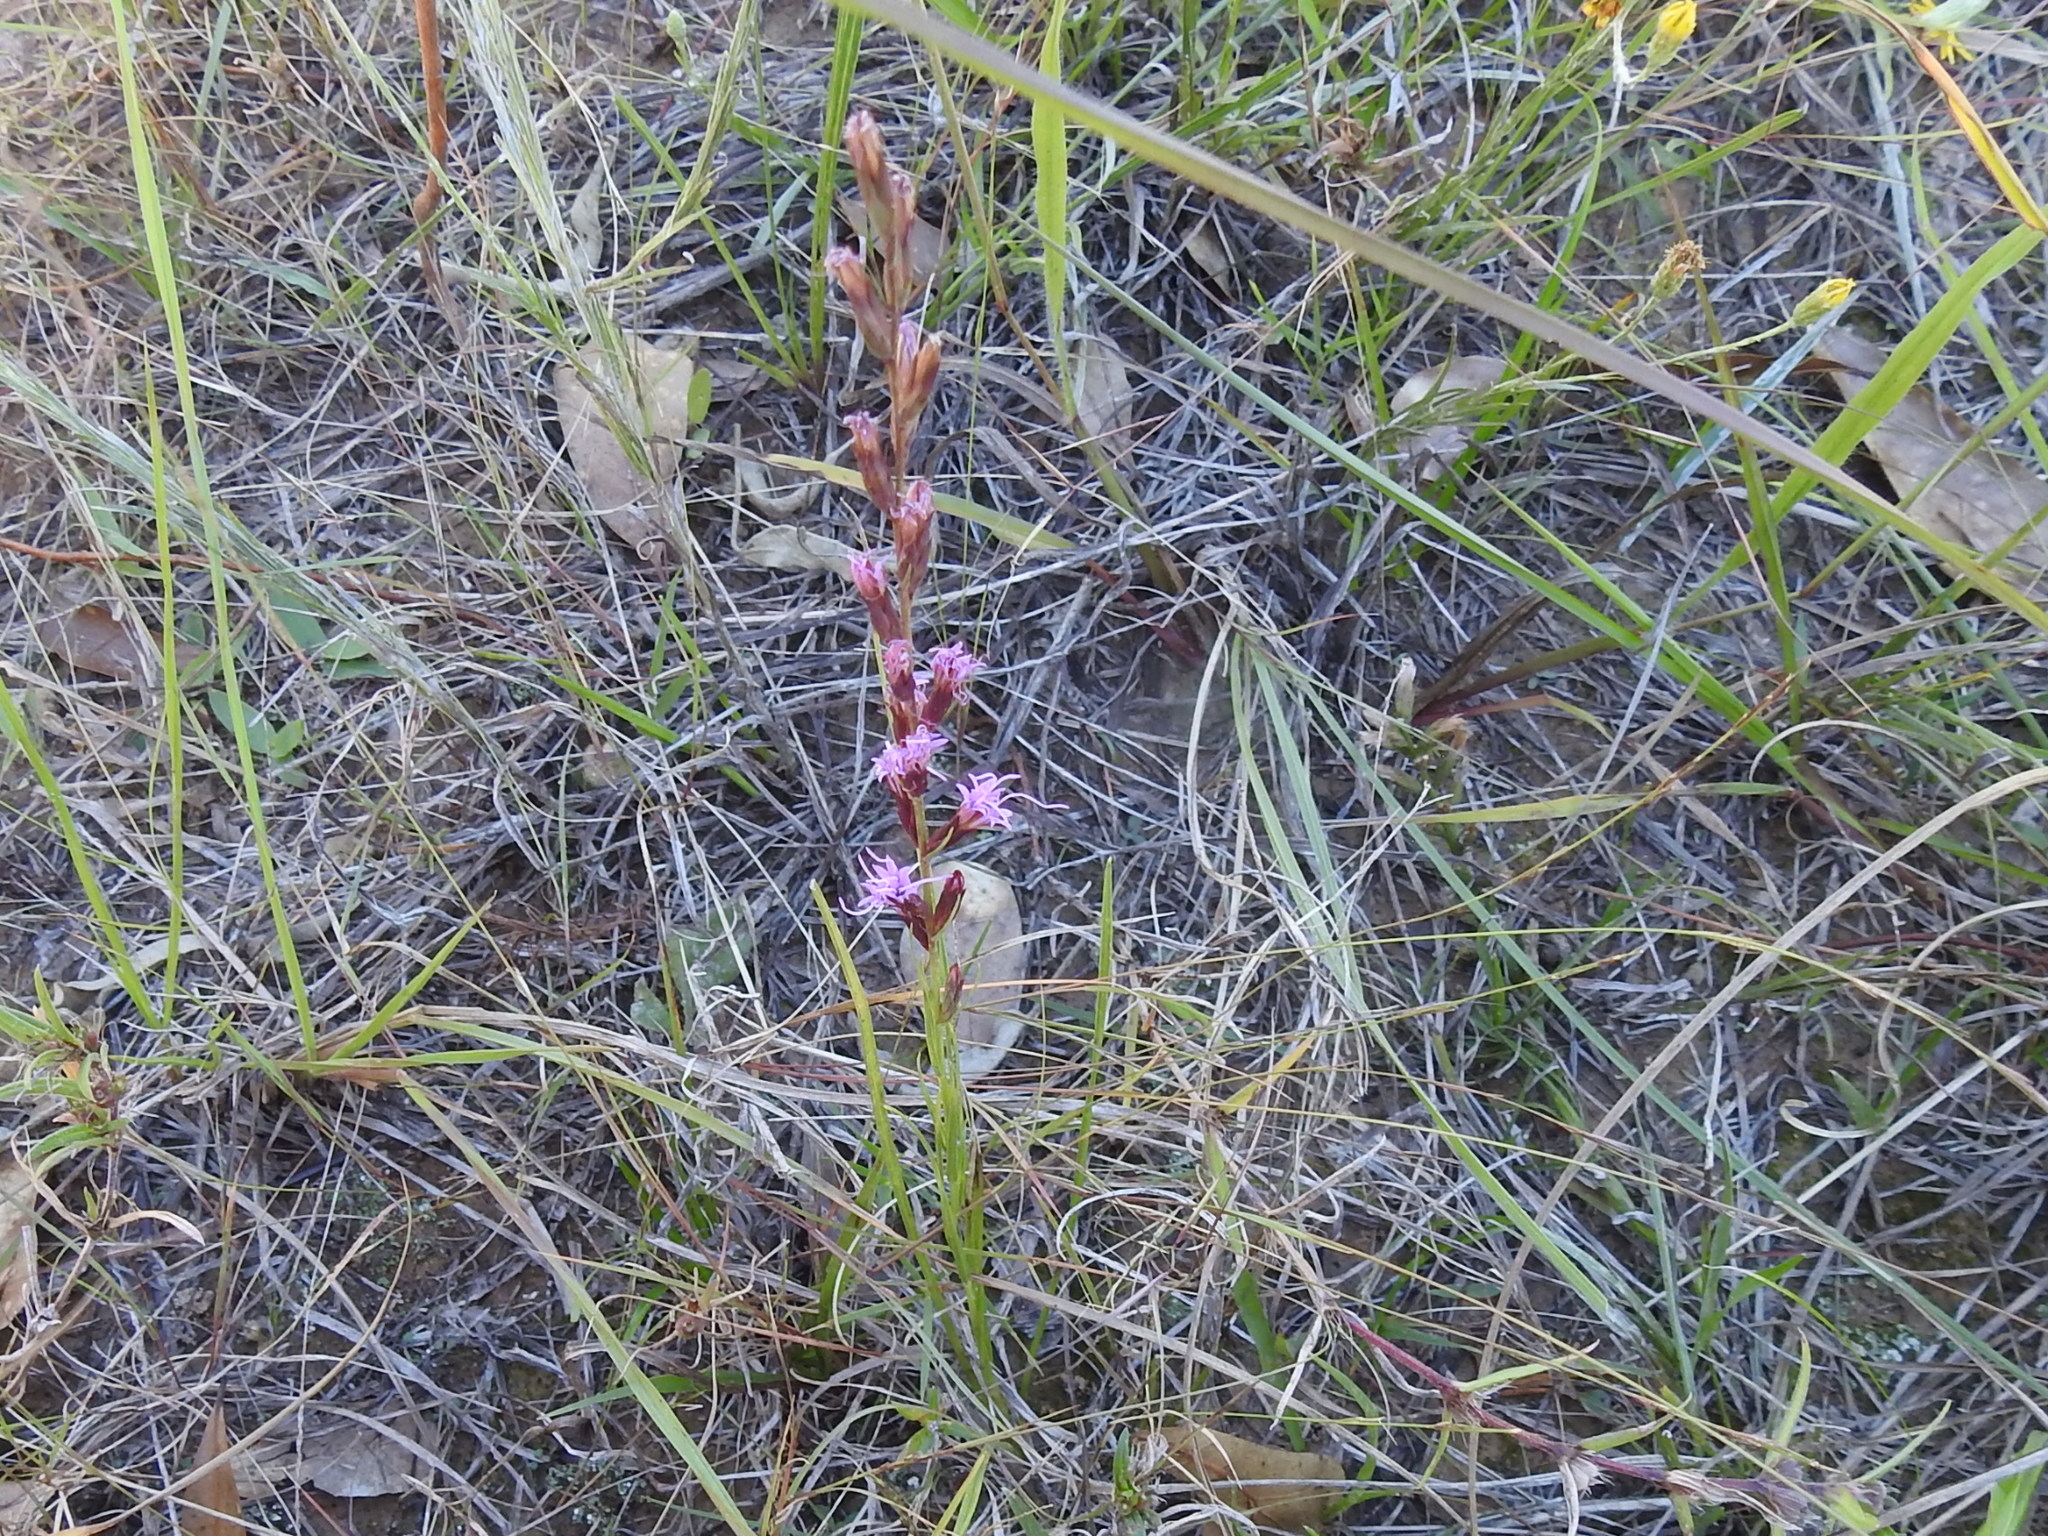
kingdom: Plantae
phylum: Tracheophyta
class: Magnoliopsida
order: Asterales
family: Asteraceae
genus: Liatris
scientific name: Liatris acidota
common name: Gulf coast gayfeather
